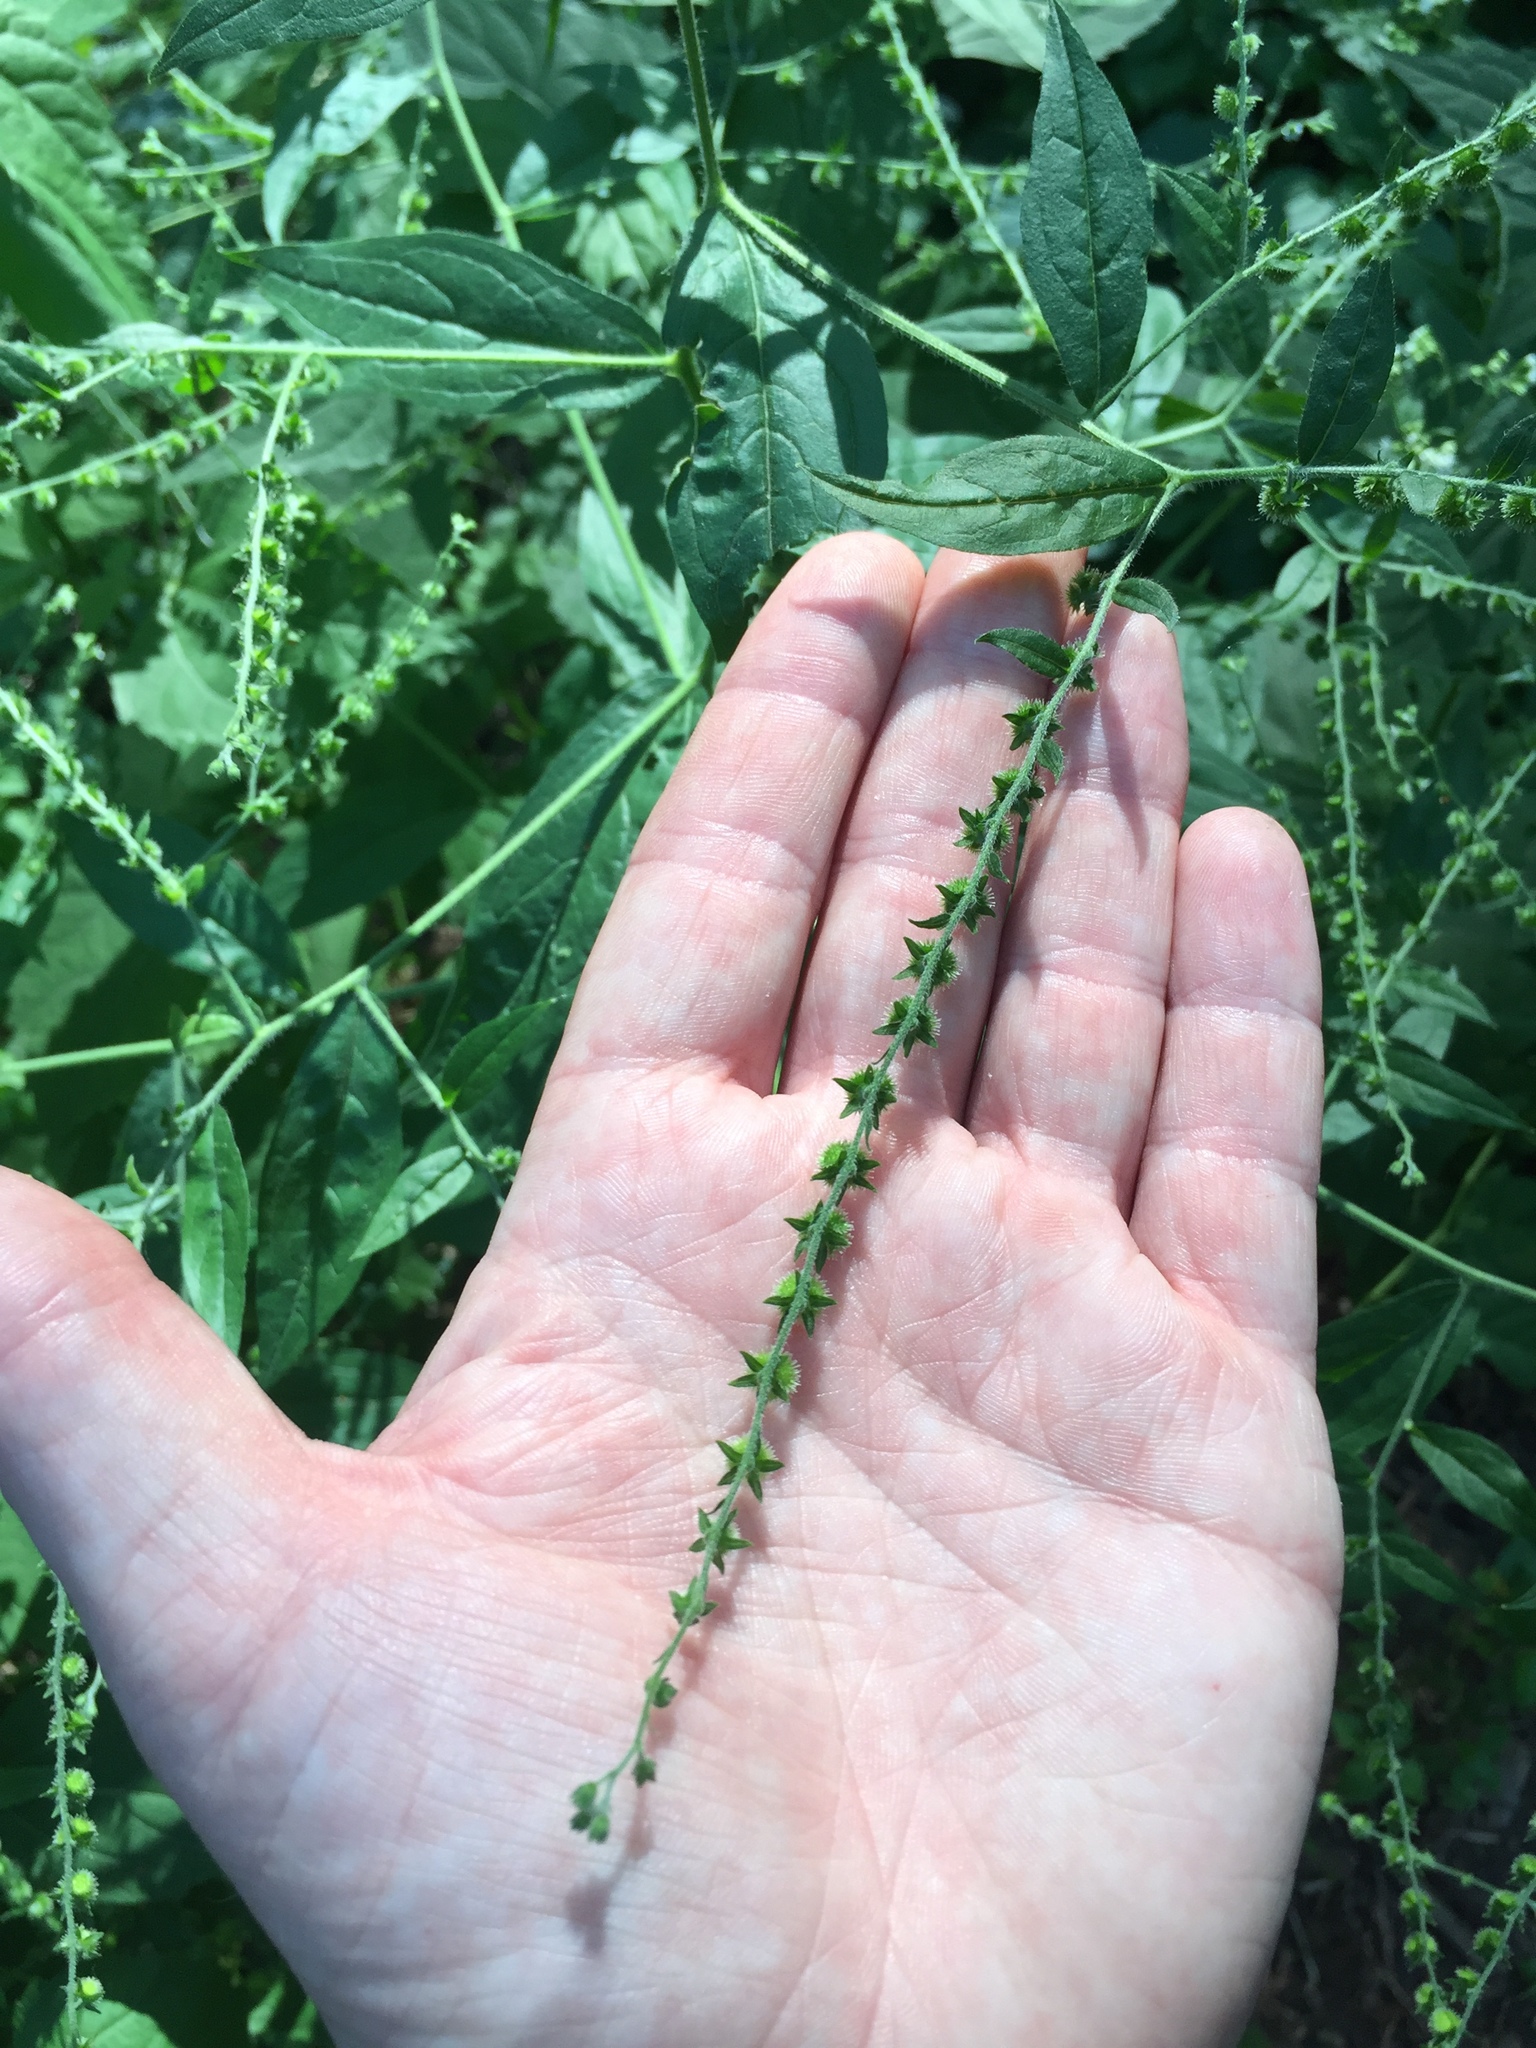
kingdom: Plantae
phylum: Tracheophyta
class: Magnoliopsida
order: Boraginales
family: Boraginaceae
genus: Hackelia
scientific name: Hackelia virginiana
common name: Beggar's-lice
